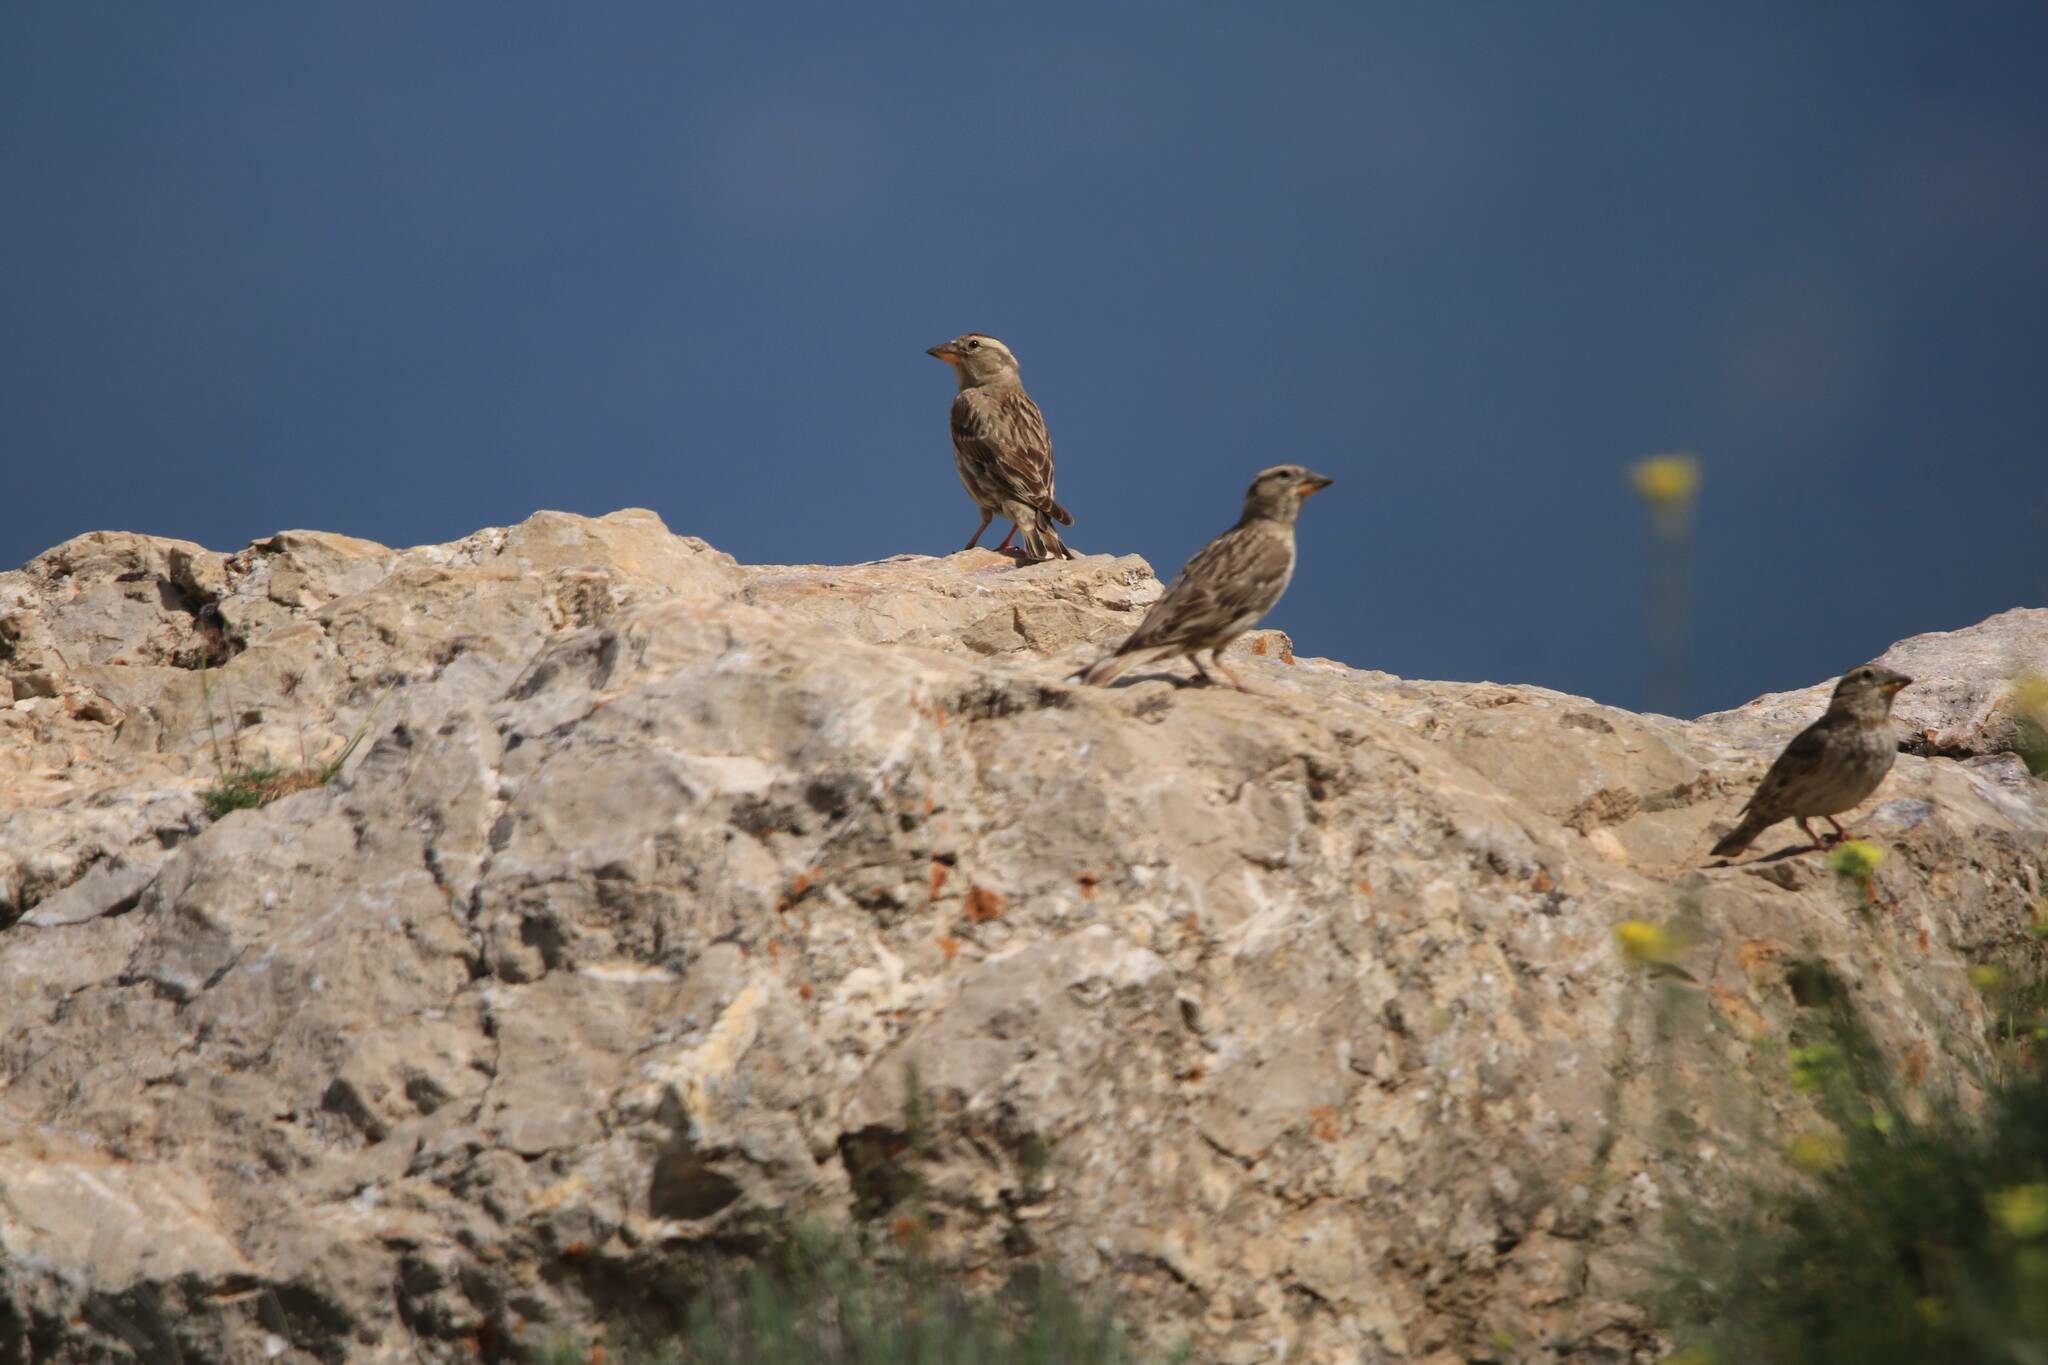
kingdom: Animalia
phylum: Chordata
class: Aves
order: Passeriformes
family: Passeridae
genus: Petronia
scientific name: Petronia petronia
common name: Rock sparrow
